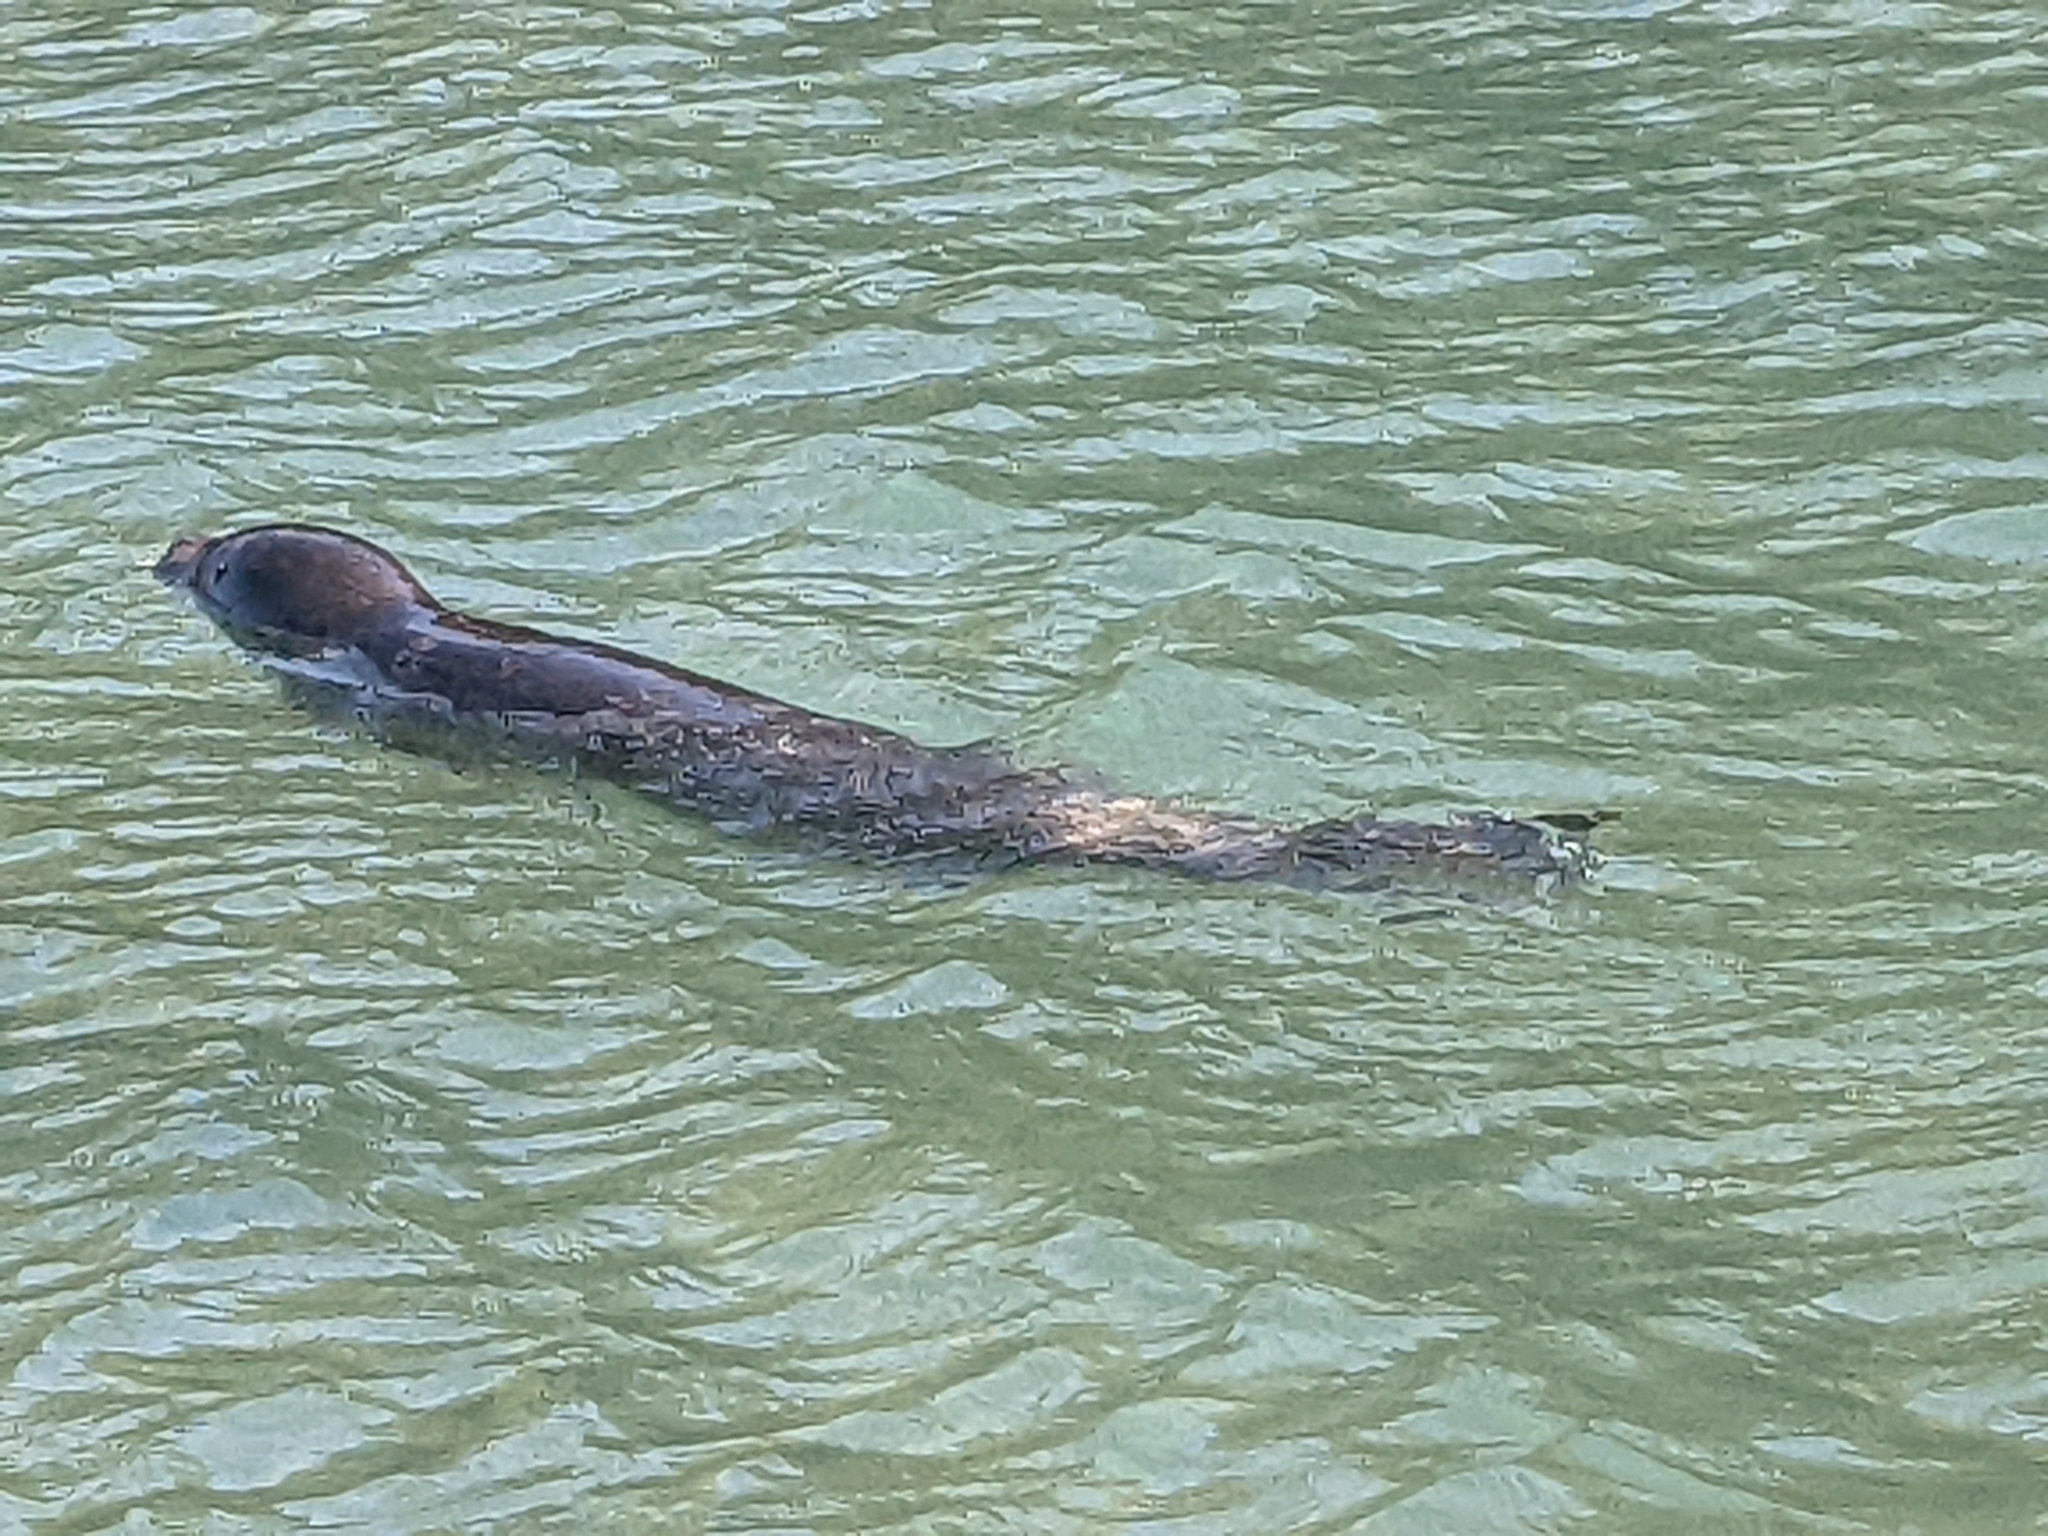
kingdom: Animalia
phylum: Chordata
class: Mammalia
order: Carnivora
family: Phocidae
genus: Phoca
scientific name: Phoca vitulina
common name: Harbor seal
